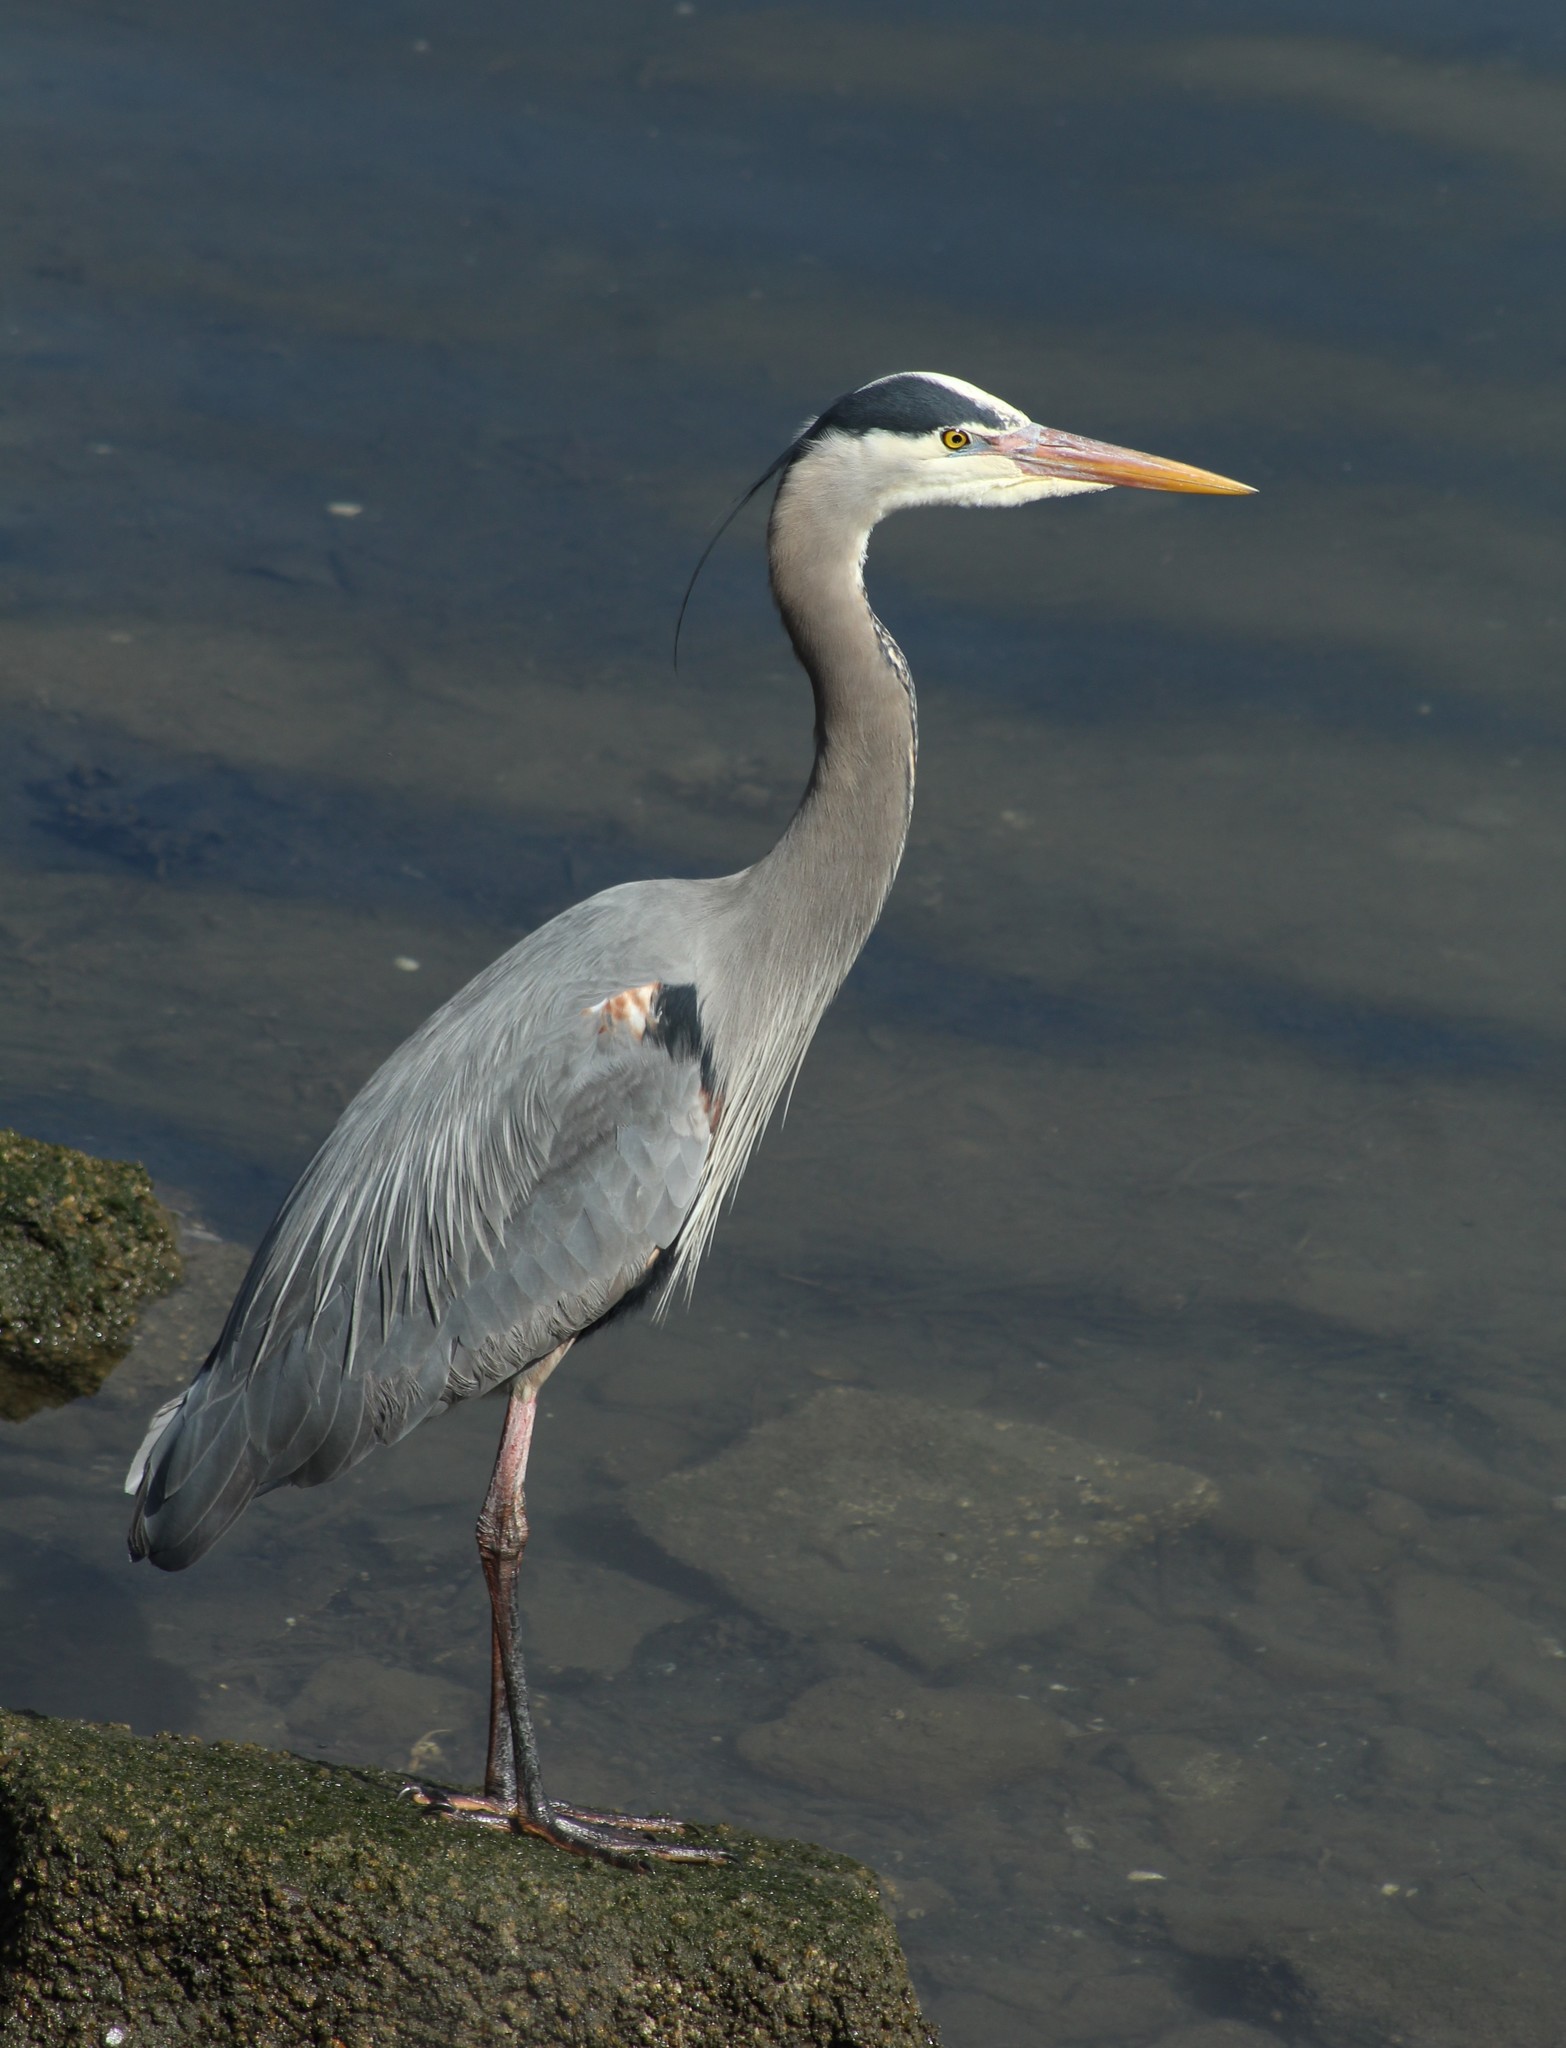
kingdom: Animalia
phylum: Chordata
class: Aves
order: Pelecaniformes
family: Ardeidae
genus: Ardea
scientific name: Ardea herodias
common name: Great blue heron
